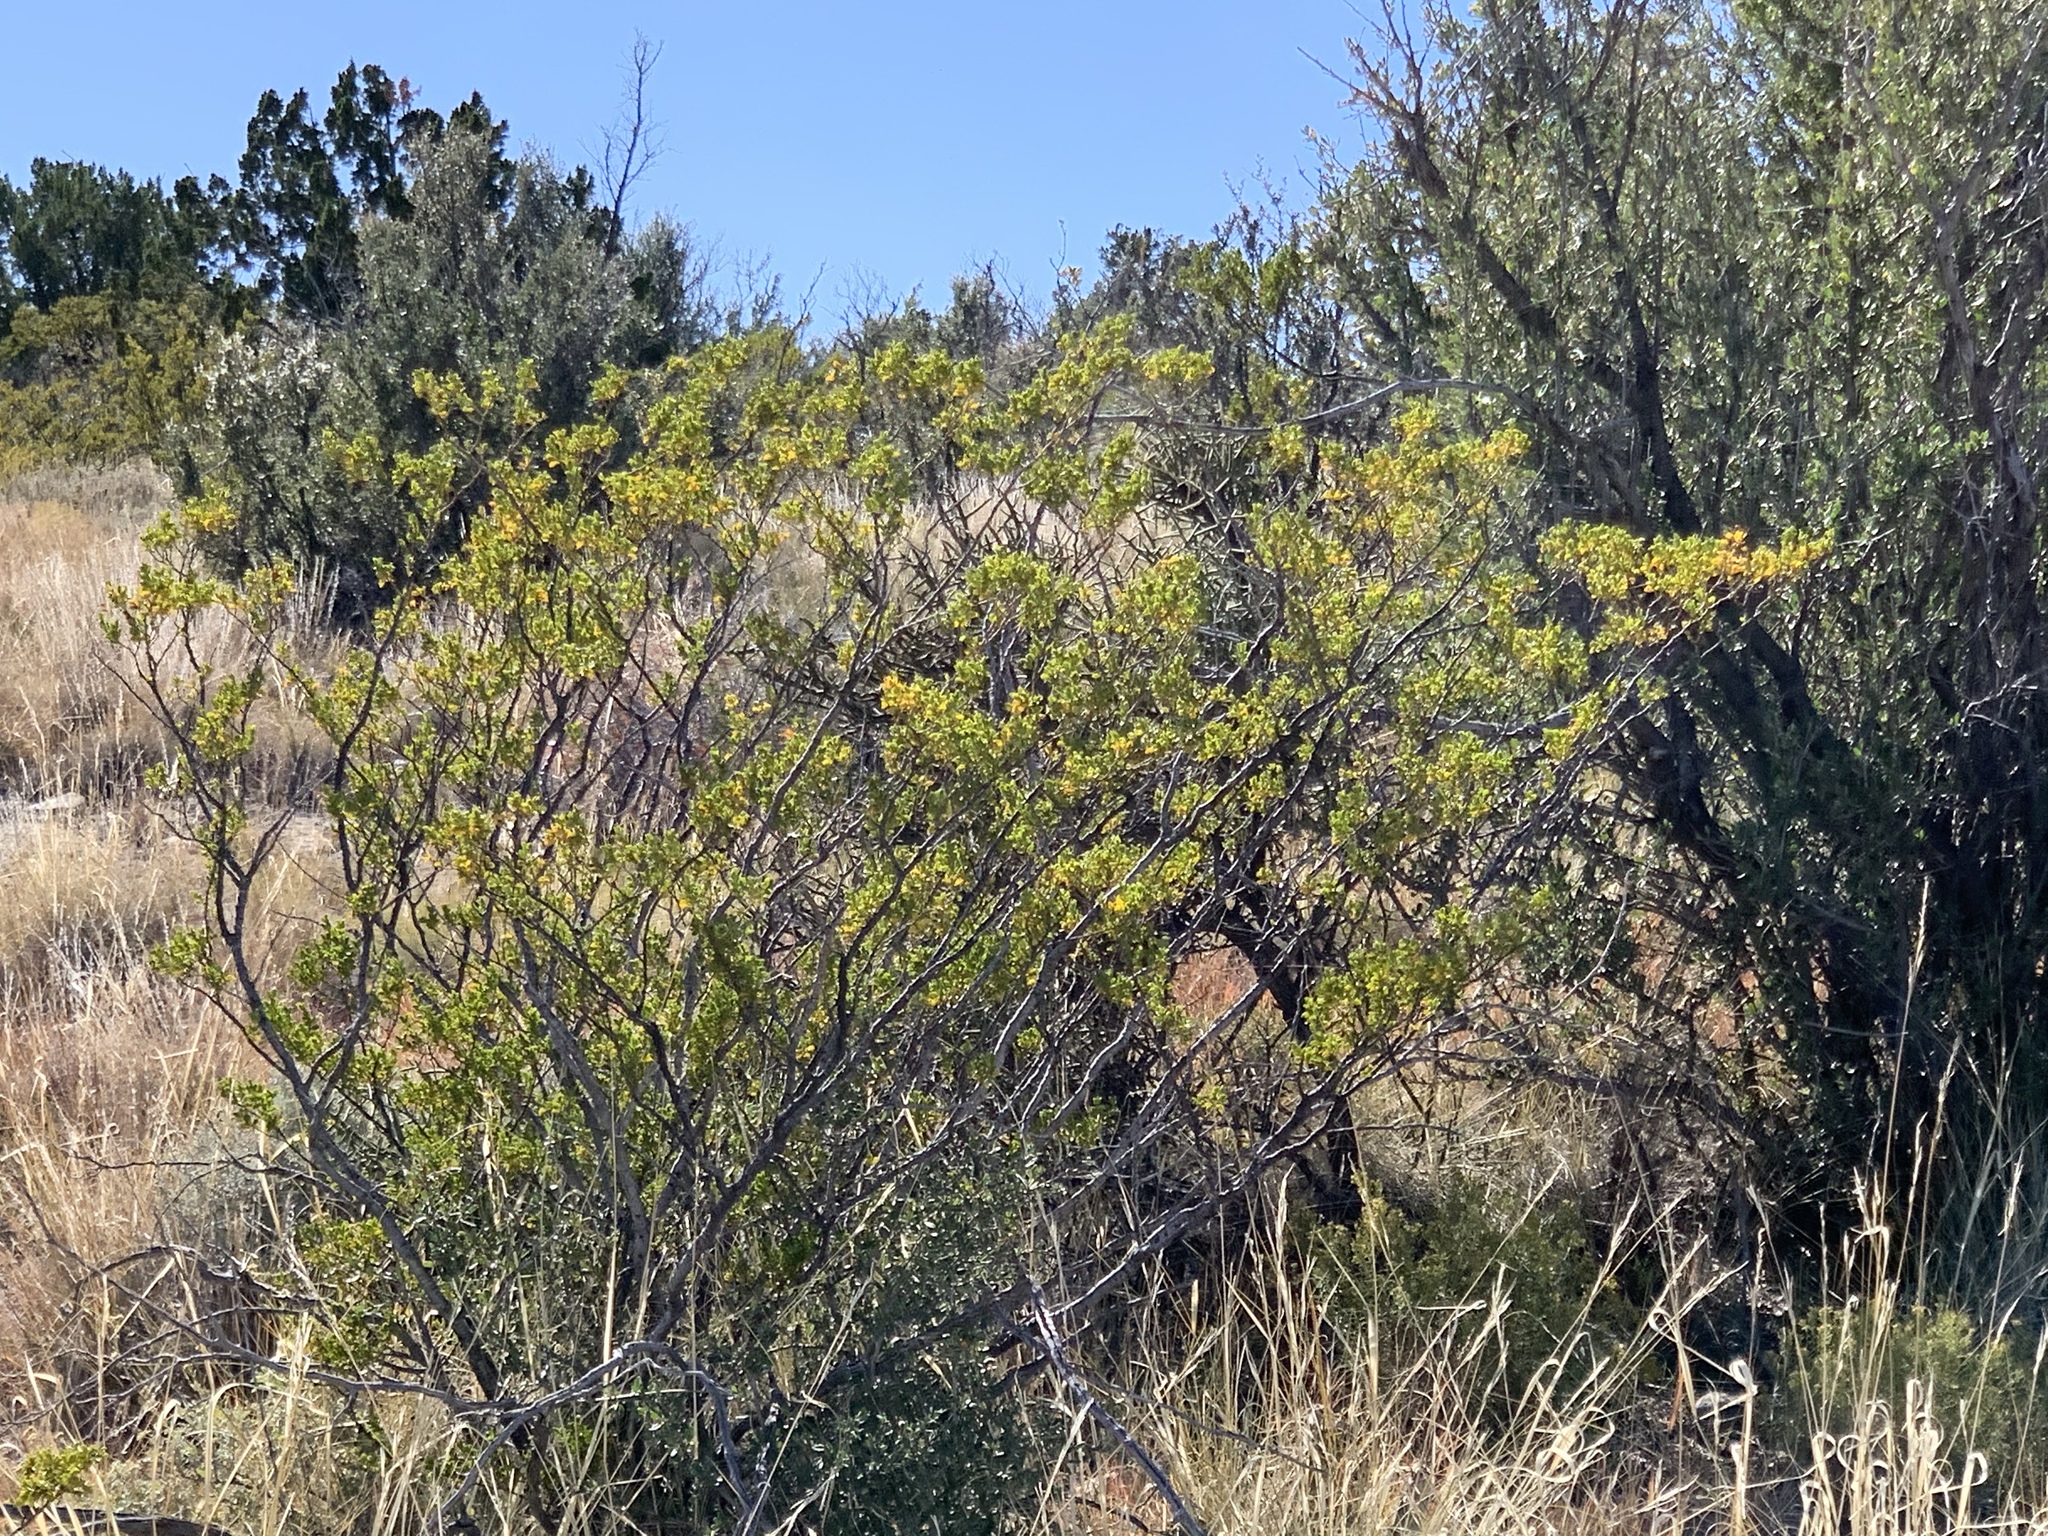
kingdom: Plantae
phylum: Tracheophyta
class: Magnoliopsida
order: Zygophyllales
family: Zygophyllaceae
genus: Larrea
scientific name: Larrea tridentata
